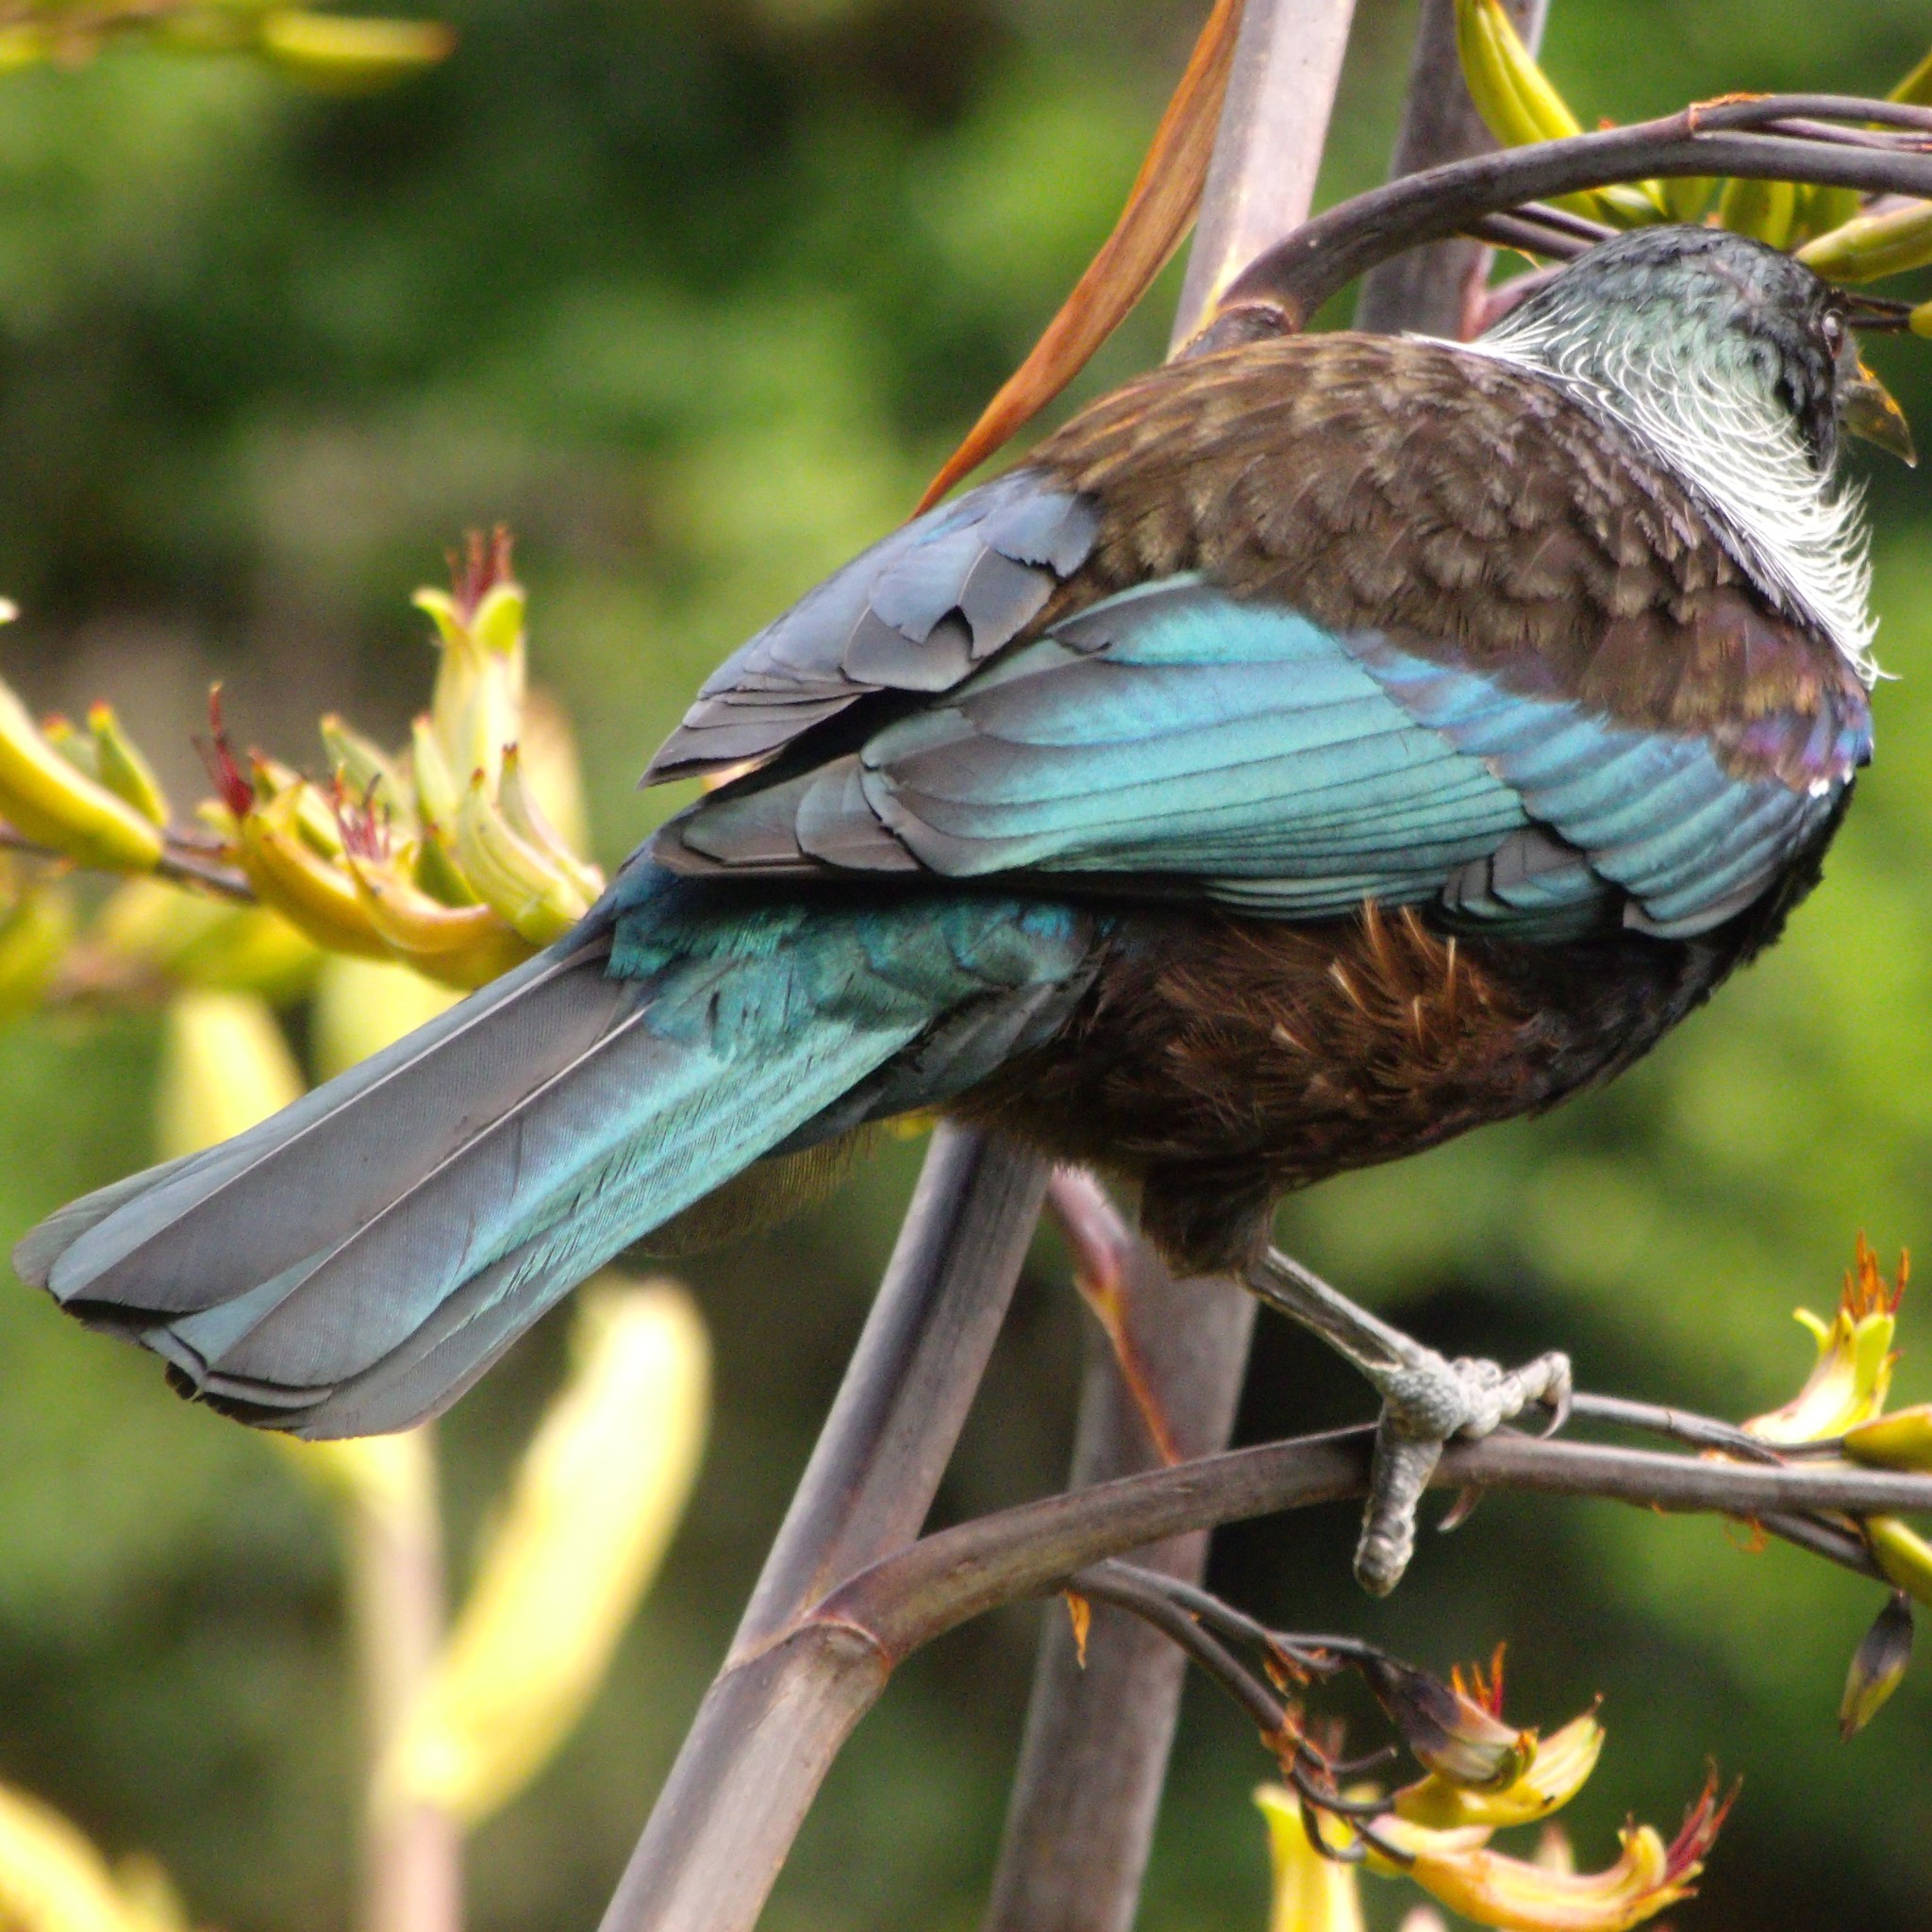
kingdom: Animalia
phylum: Chordata
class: Aves
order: Passeriformes
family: Meliphagidae
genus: Prosthemadera
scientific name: Prosthemadera novaeseelandiae
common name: Tui
